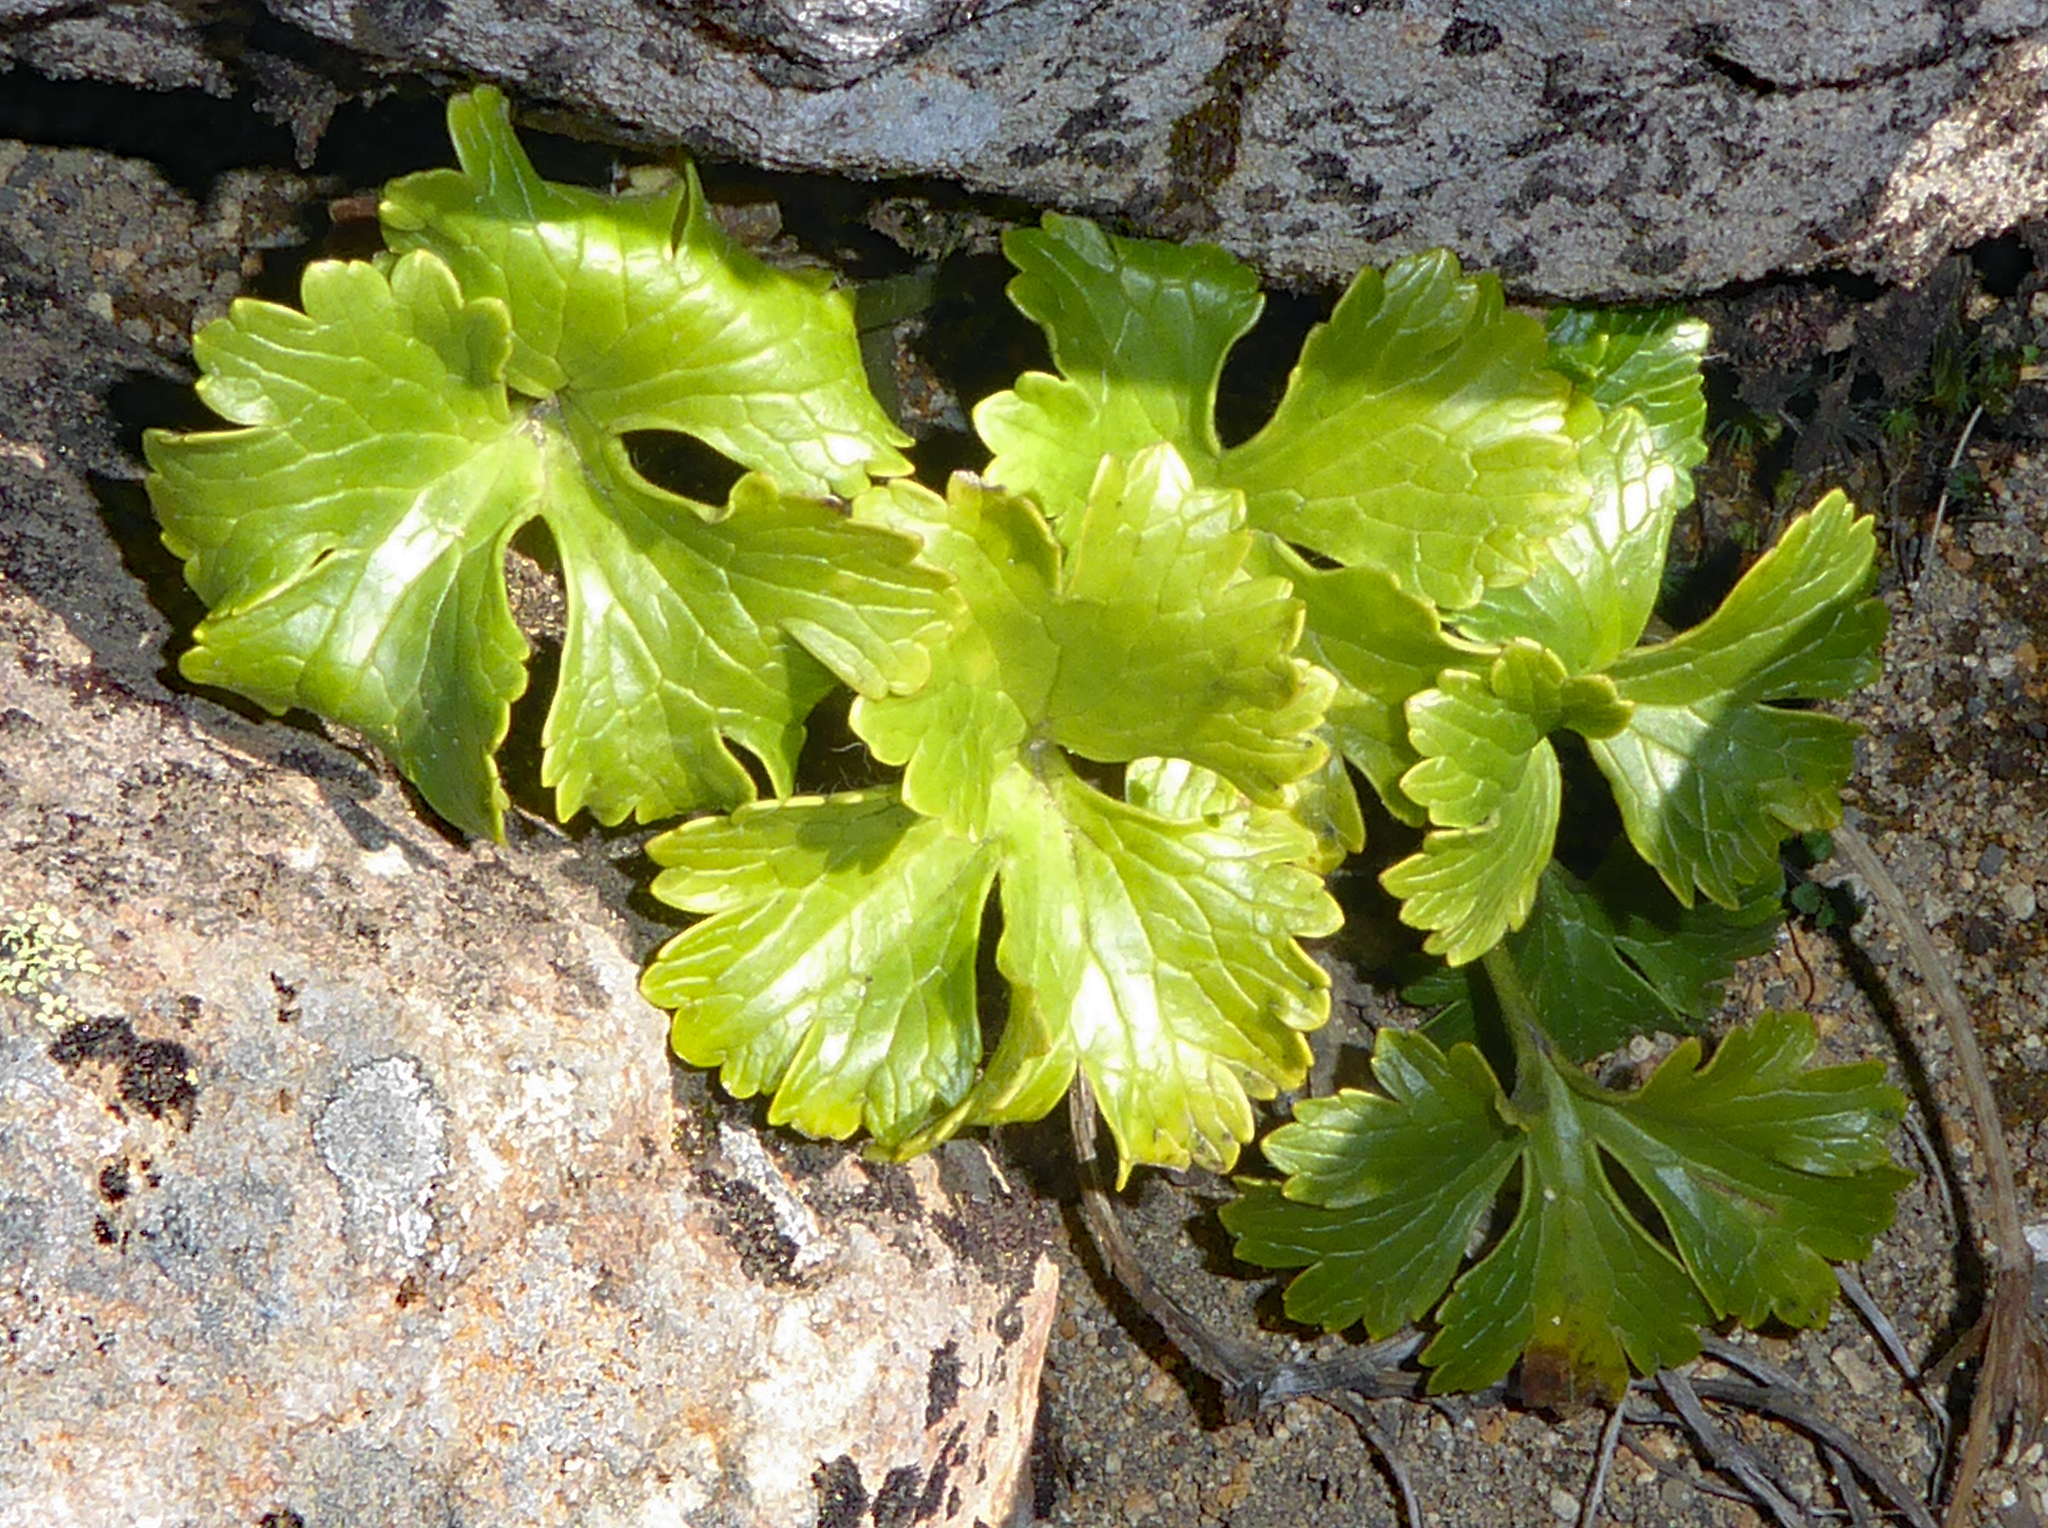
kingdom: Plantae
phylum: Tracheophyta
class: Magnoliopsida
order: Ranunculales
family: Ranunculaceae
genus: Ranunculus
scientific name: Ranunculus nivicola
